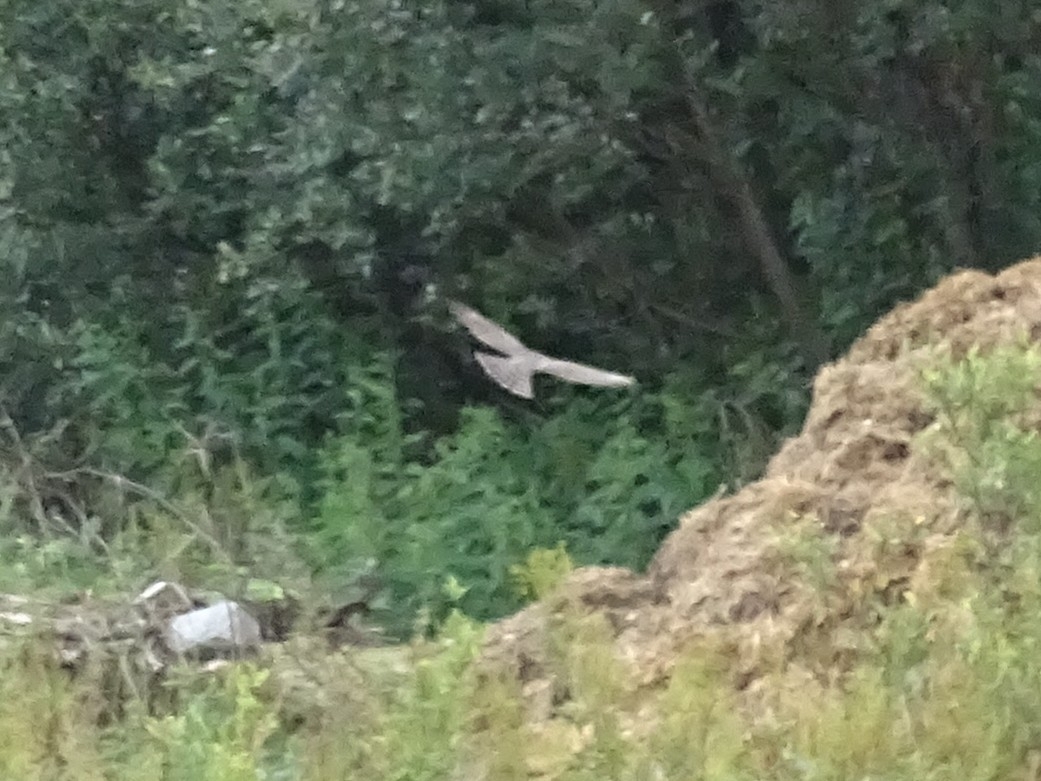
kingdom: Animalia
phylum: Chordata
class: Aves
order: Accipitriformes
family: Accipitridae
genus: Accipiter
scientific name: Accipiter nisus
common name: Eurasian sparrowhawk
